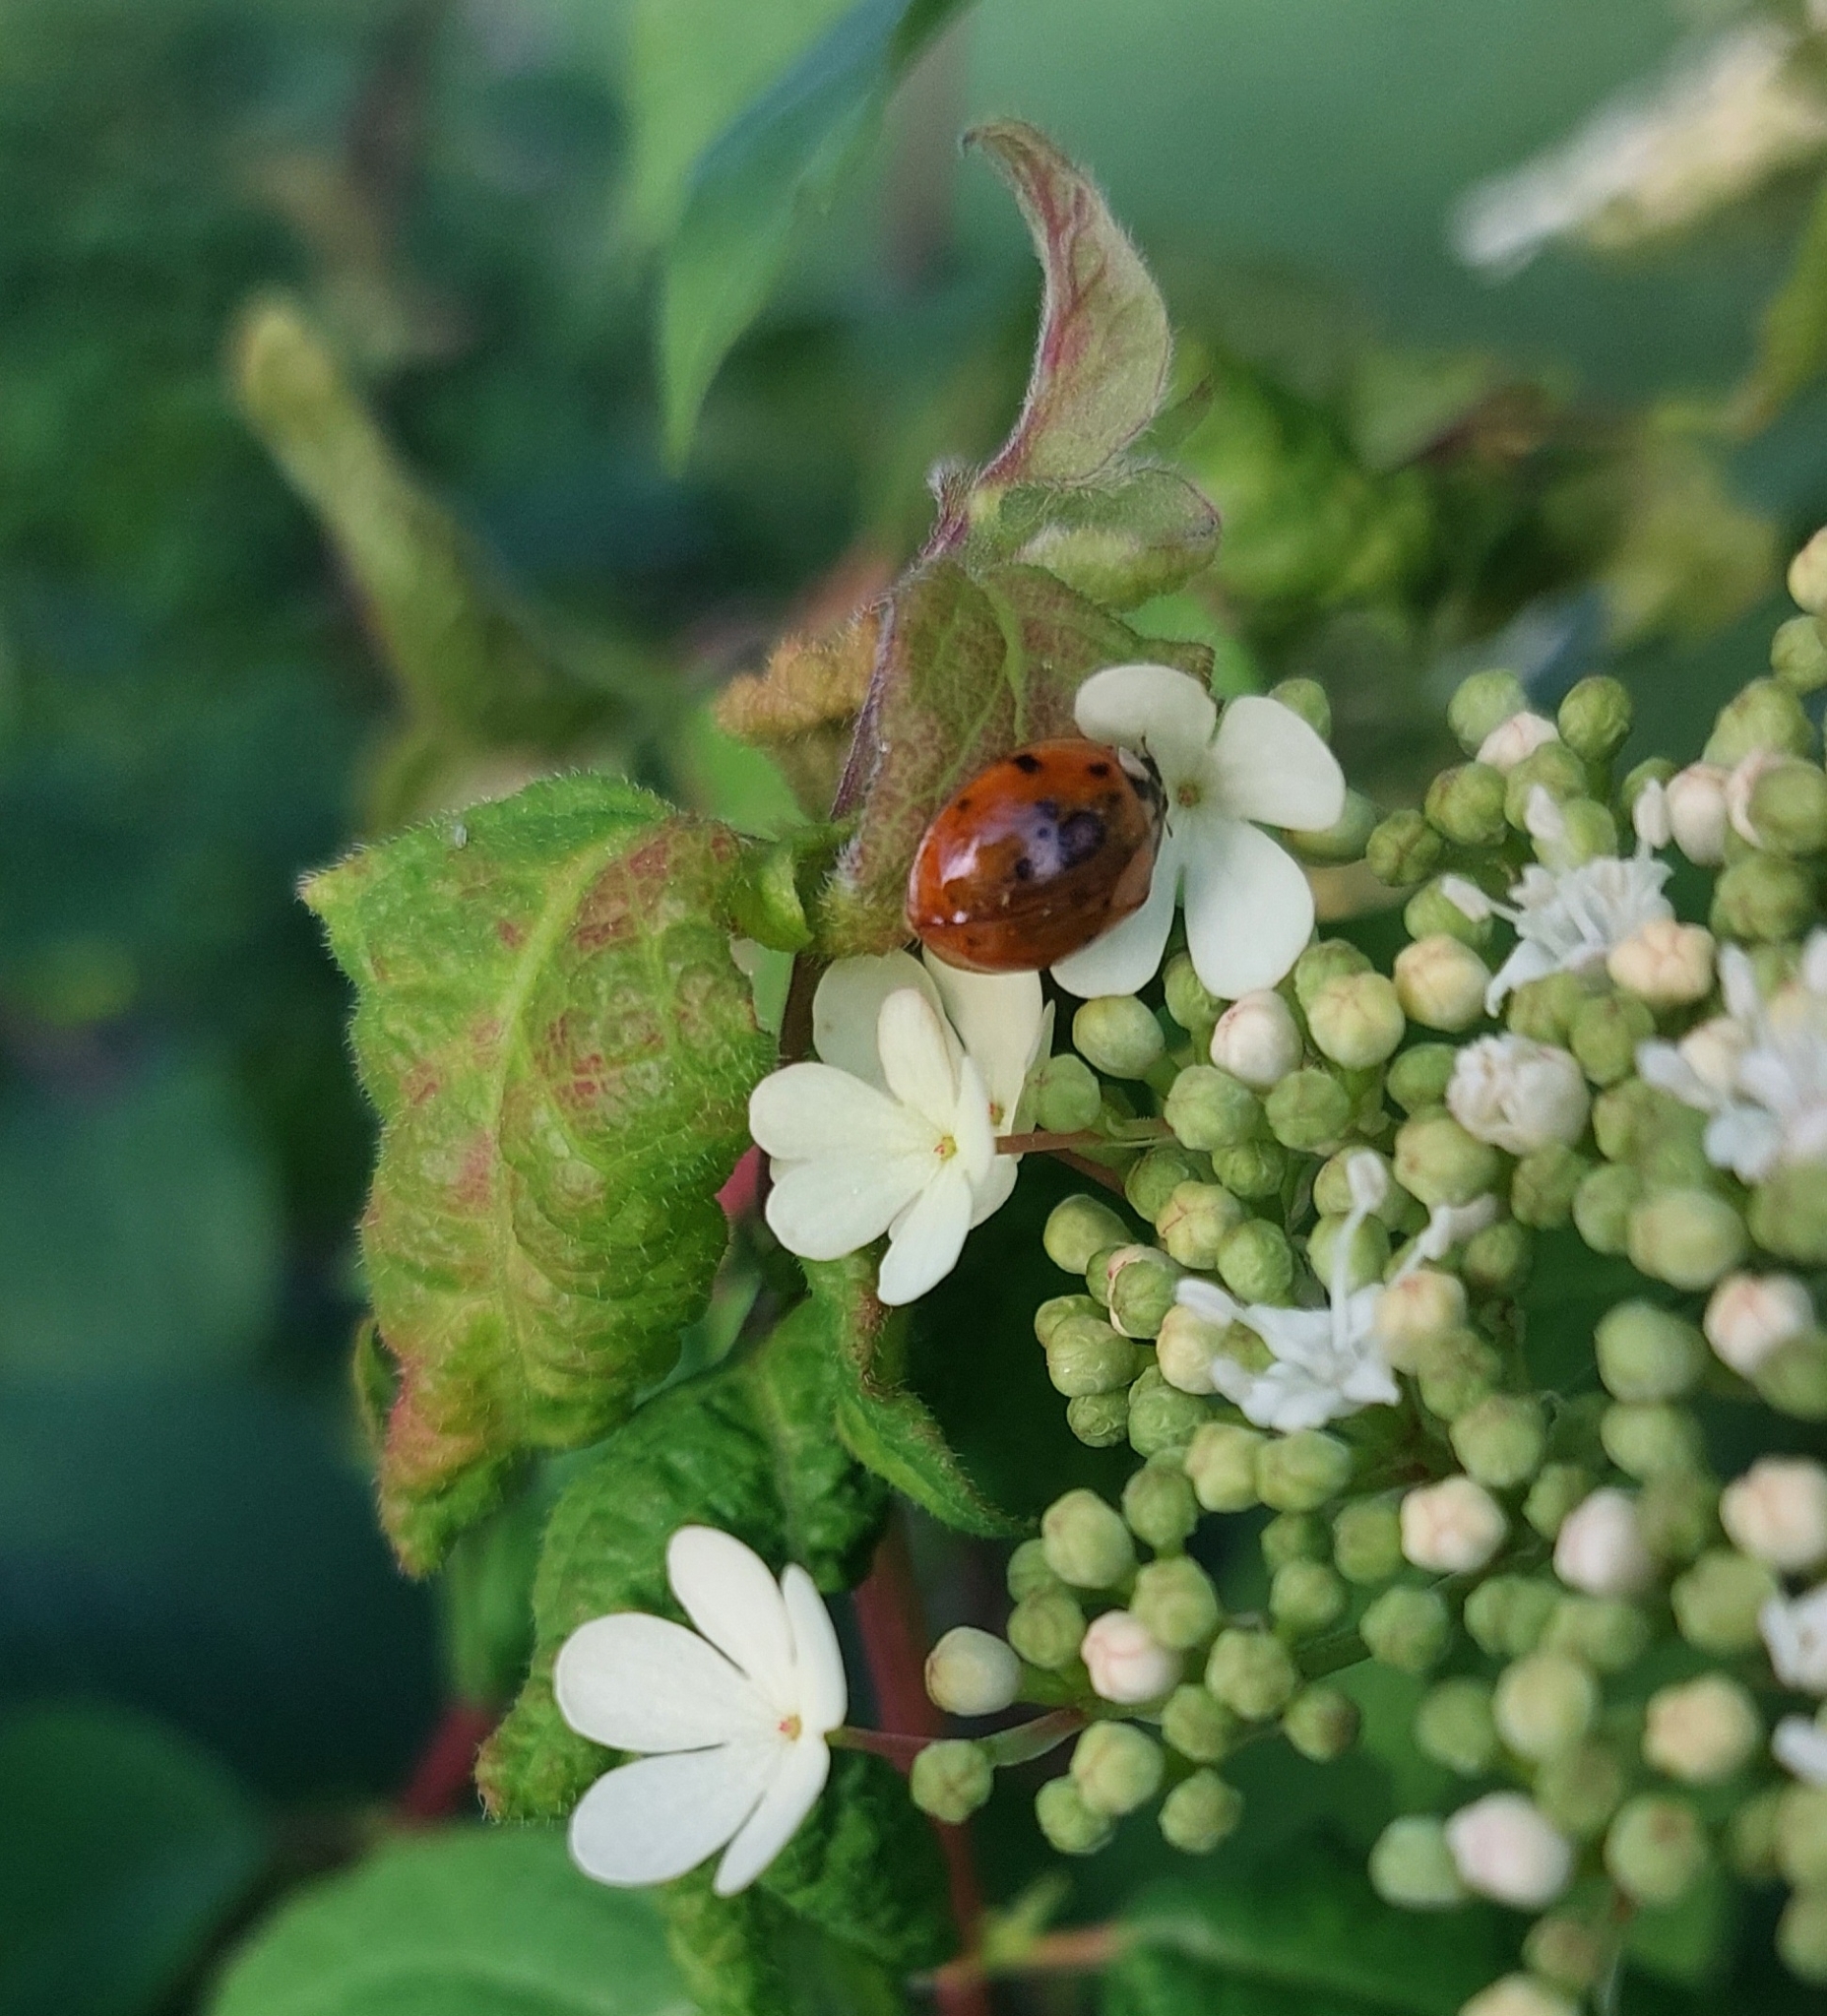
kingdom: Animalia
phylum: Arthropoda
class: Insecta
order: Coleoptera
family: Coccinellidae
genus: Harmonia
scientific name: Harmonia axyridis
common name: Harlequin ladybird
